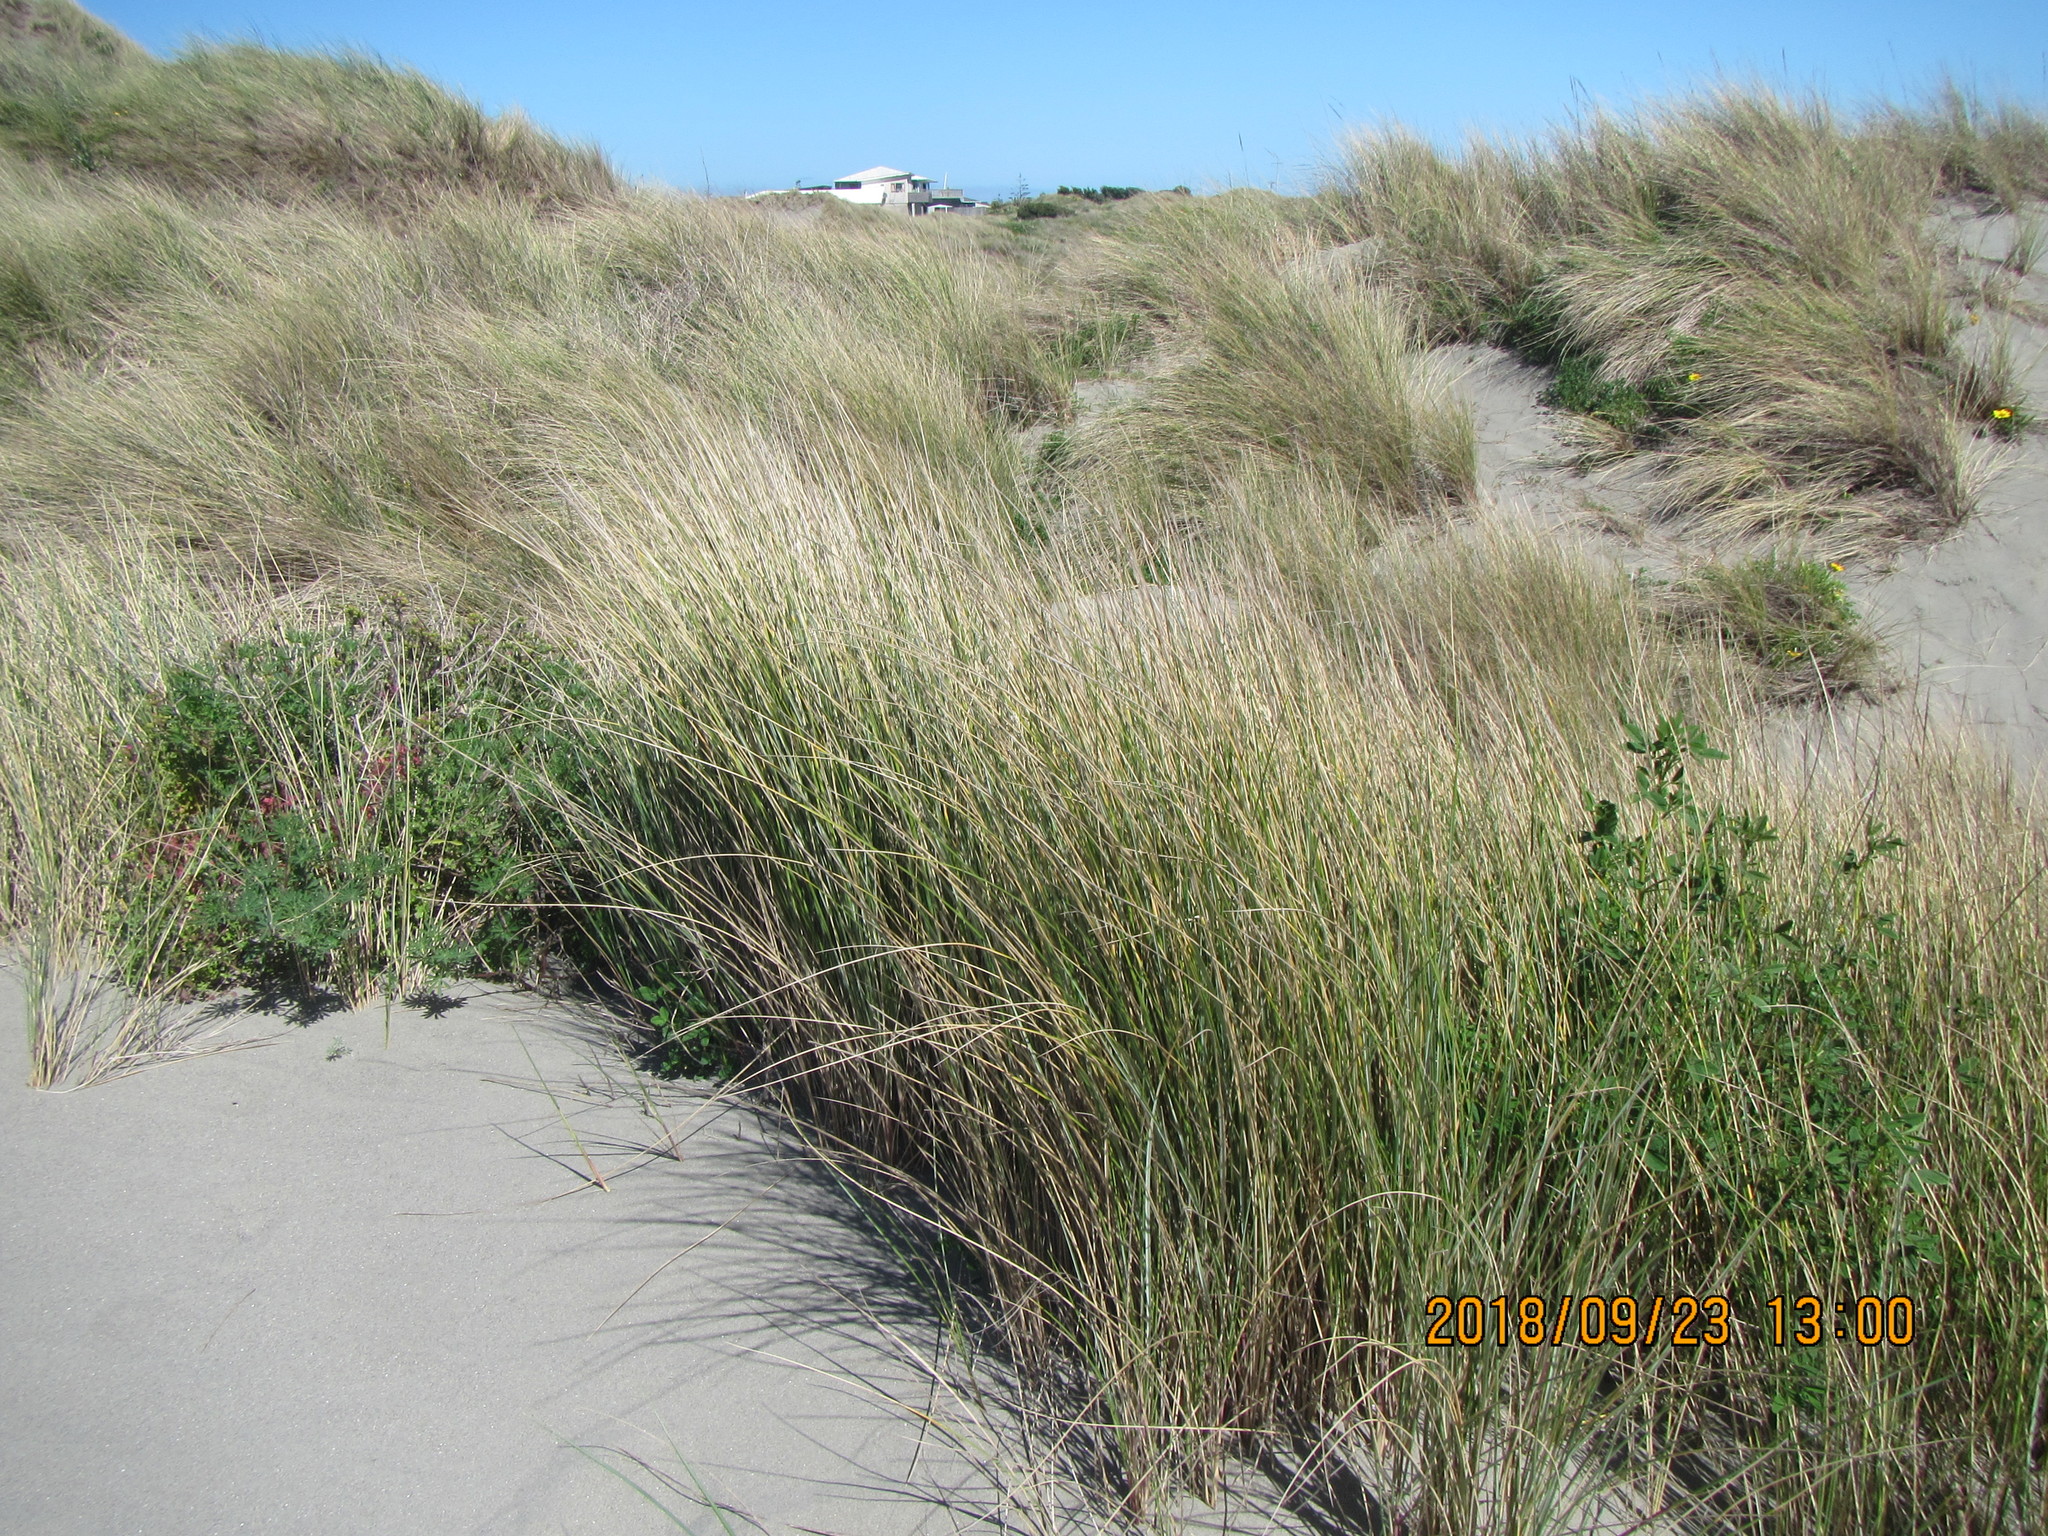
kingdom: Plantae
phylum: Tracheophyta
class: Liliopsida
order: Poales
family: Poaceae
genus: Calamagrostis
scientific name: Calamagrostis arenaria
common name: European beachgrass
